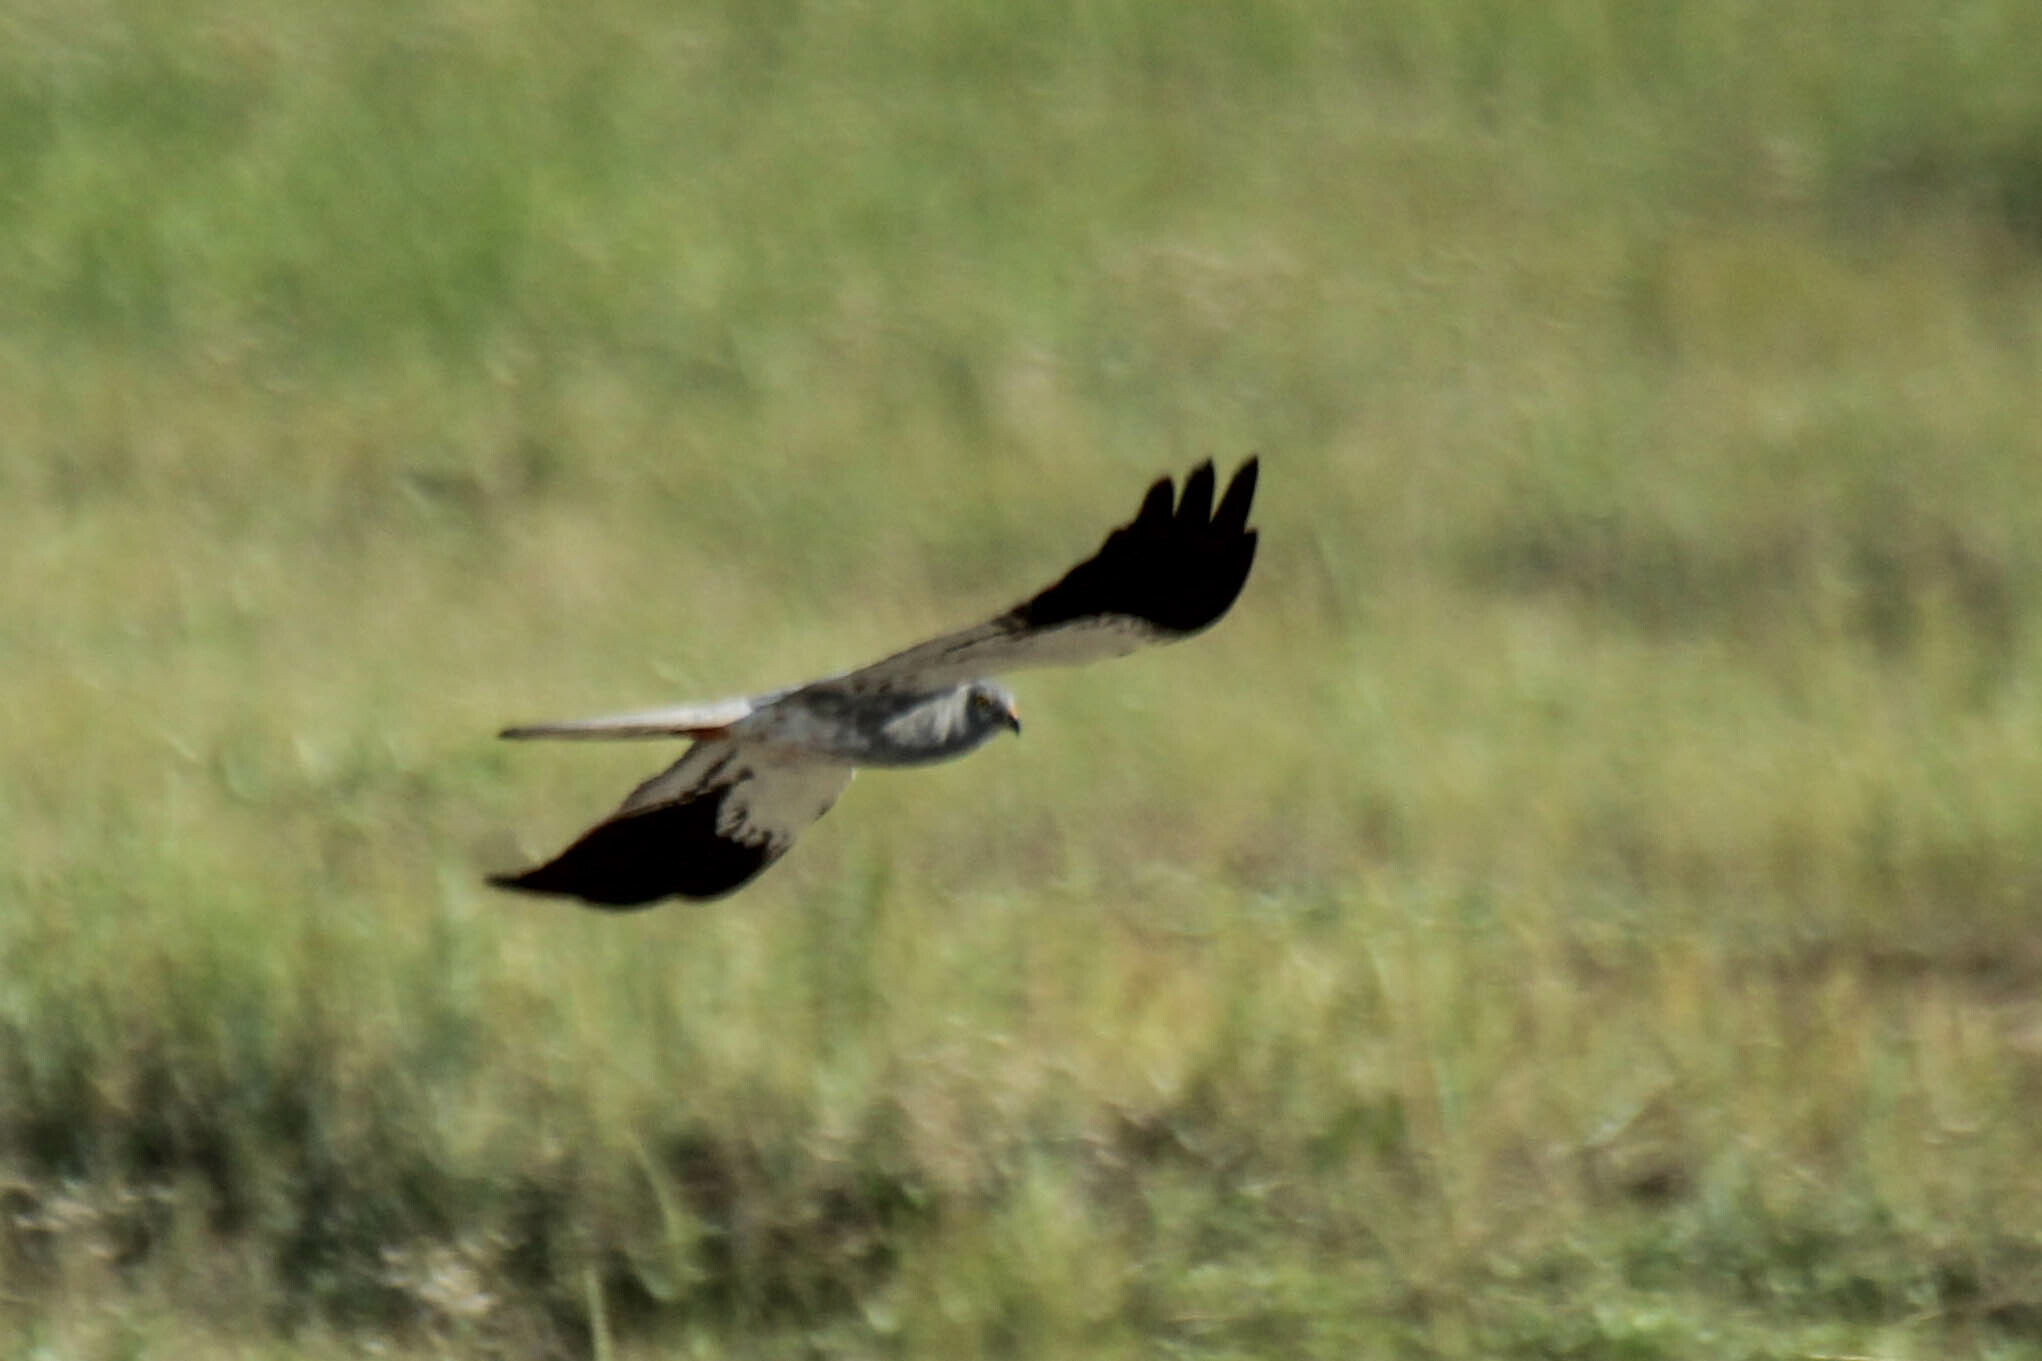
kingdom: Animalia
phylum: Chordata
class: Aves
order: Accipitriformes
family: Accipitridae
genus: Circus
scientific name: Circus pygargus
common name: Montagu's harrier
